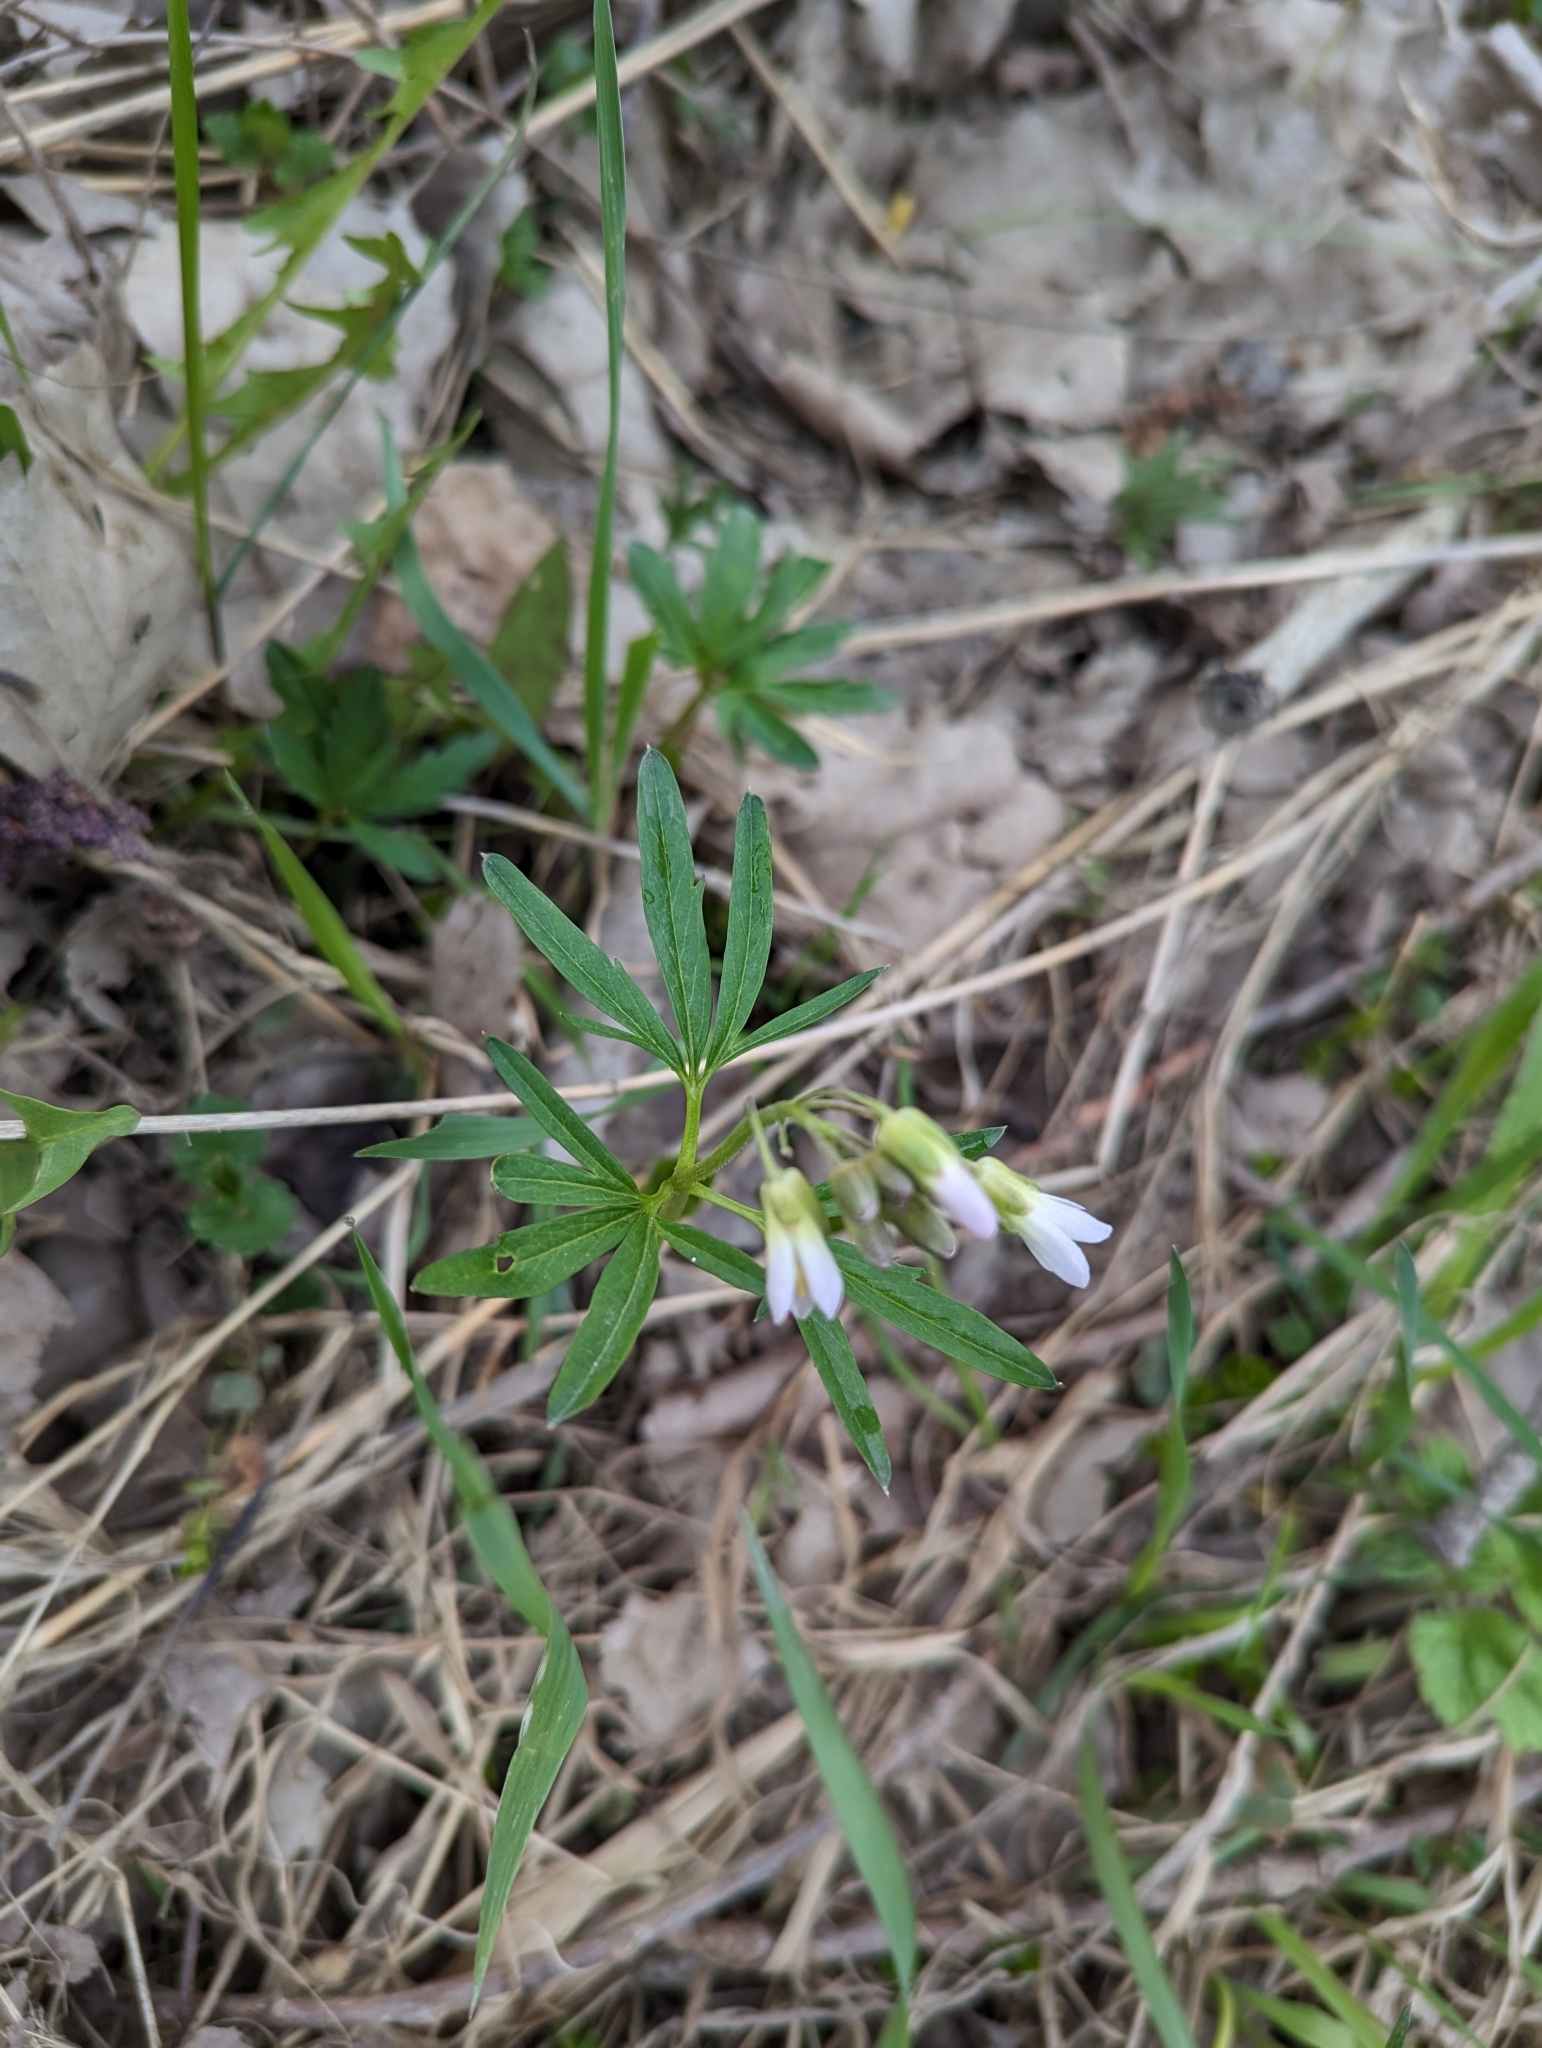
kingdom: Plantae
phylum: Tracheophyta
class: Magnoliopsida
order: Brassicales
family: Brassicaceae
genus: Cardamine
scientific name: Cardamine concatenata
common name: Cut-leaf toothcup
